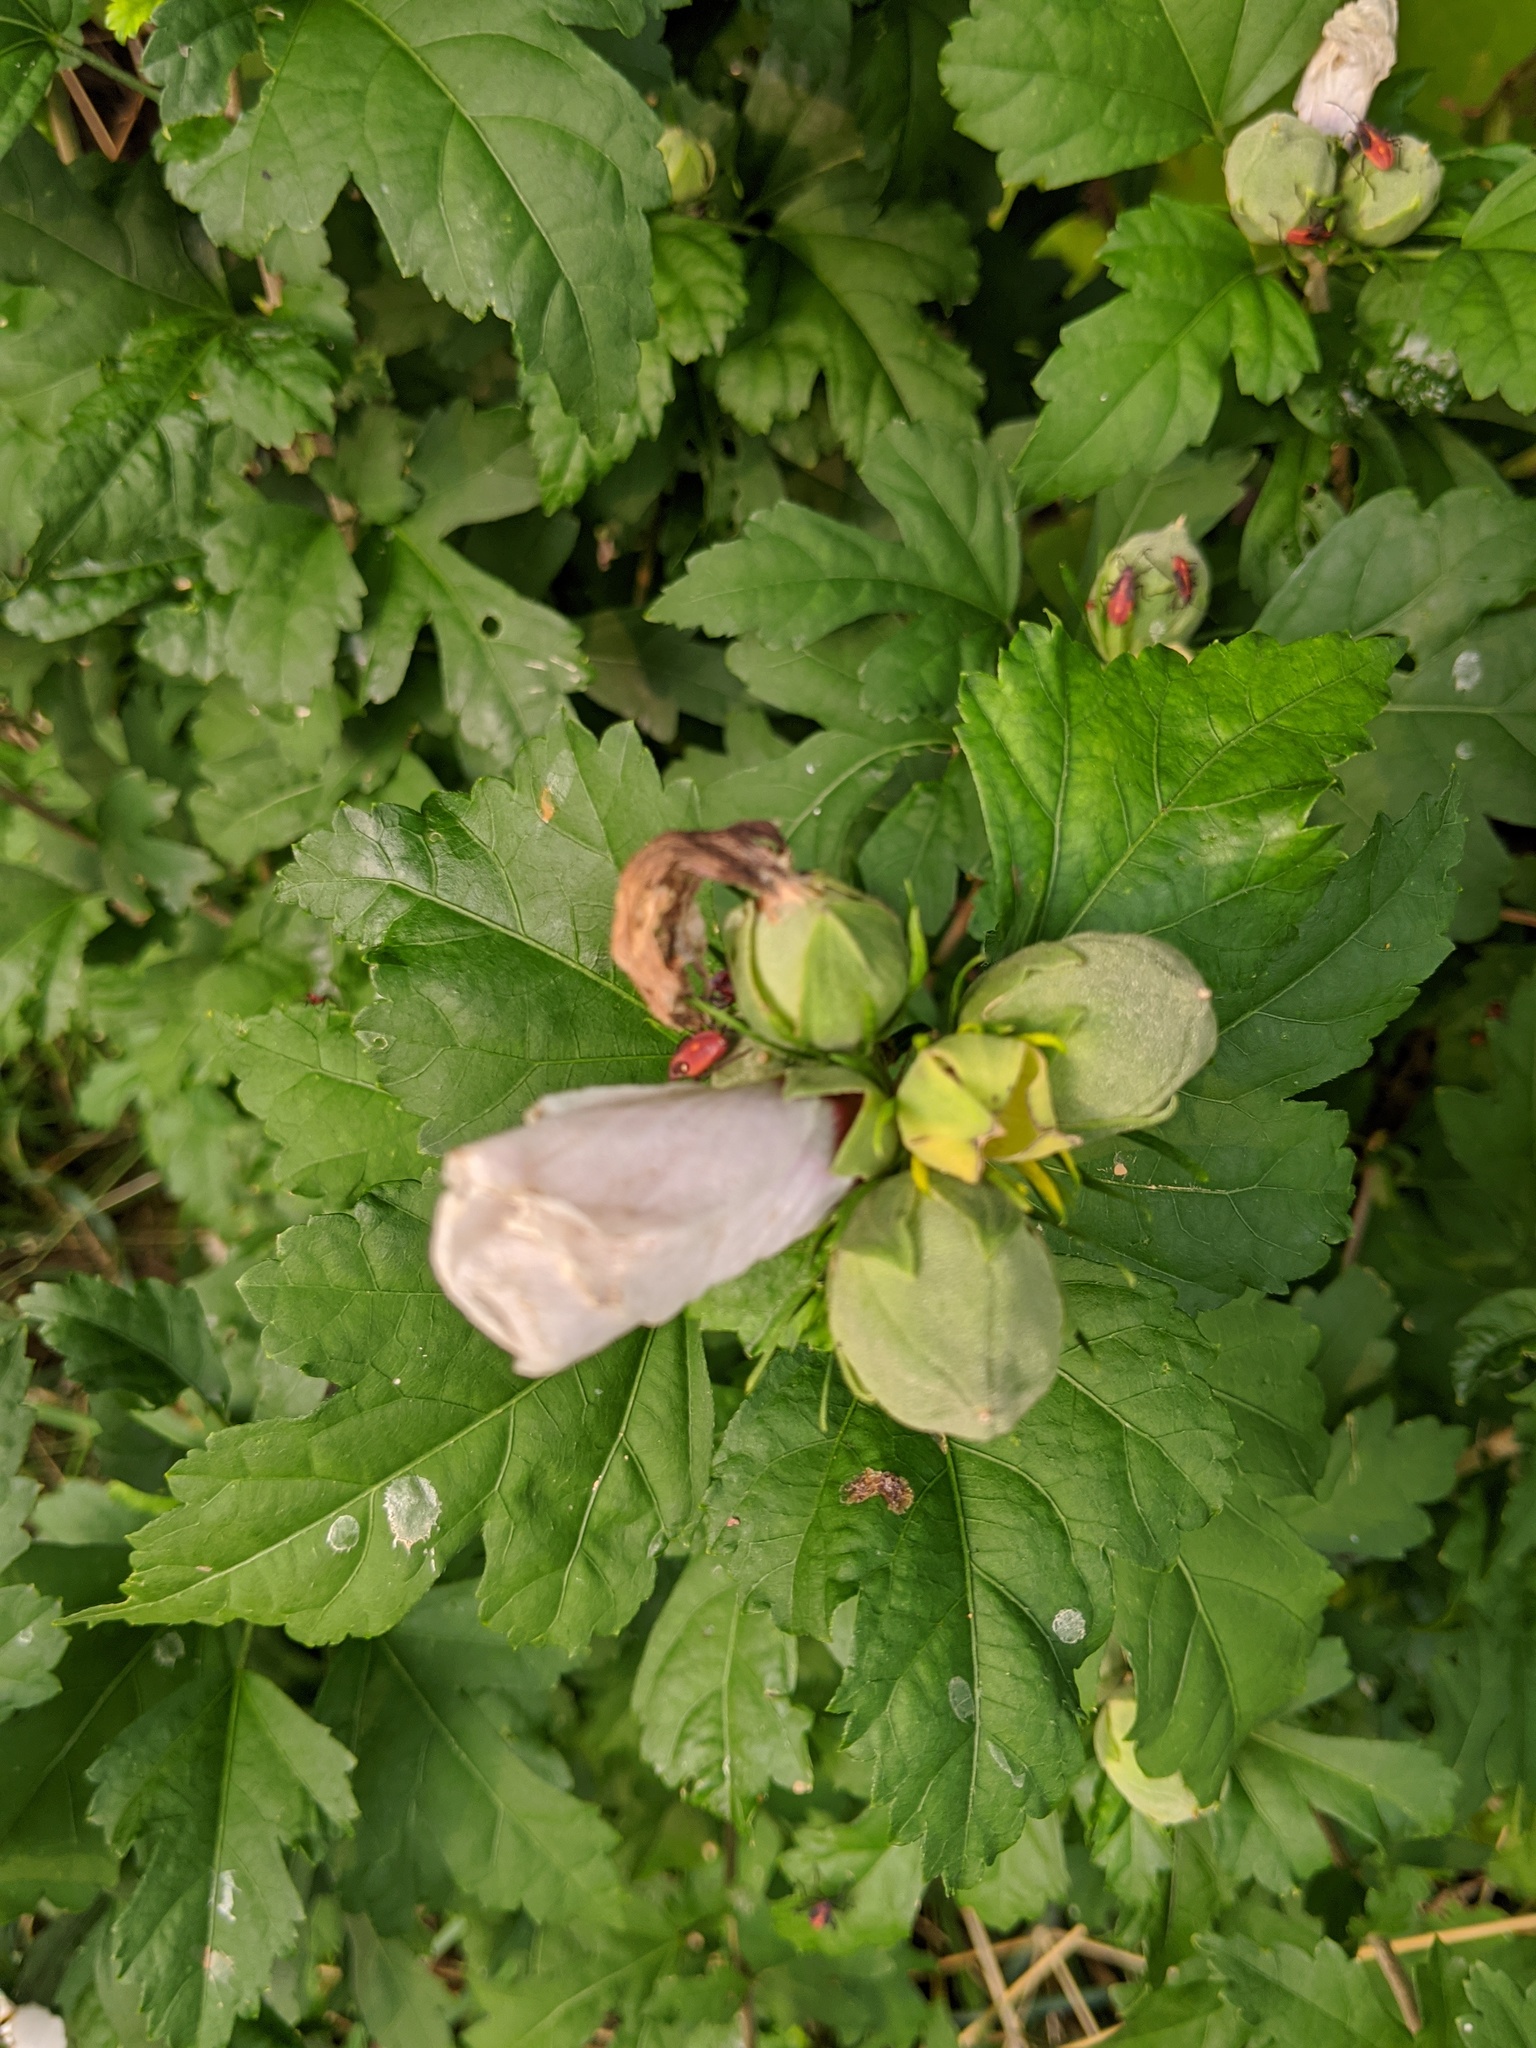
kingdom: Plantae
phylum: Tracheophyta
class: Magnoliopsida
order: Malvales
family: Malvaceae
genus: Hibiscus
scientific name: Hibiscus syriacus
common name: Syrian ketmia
